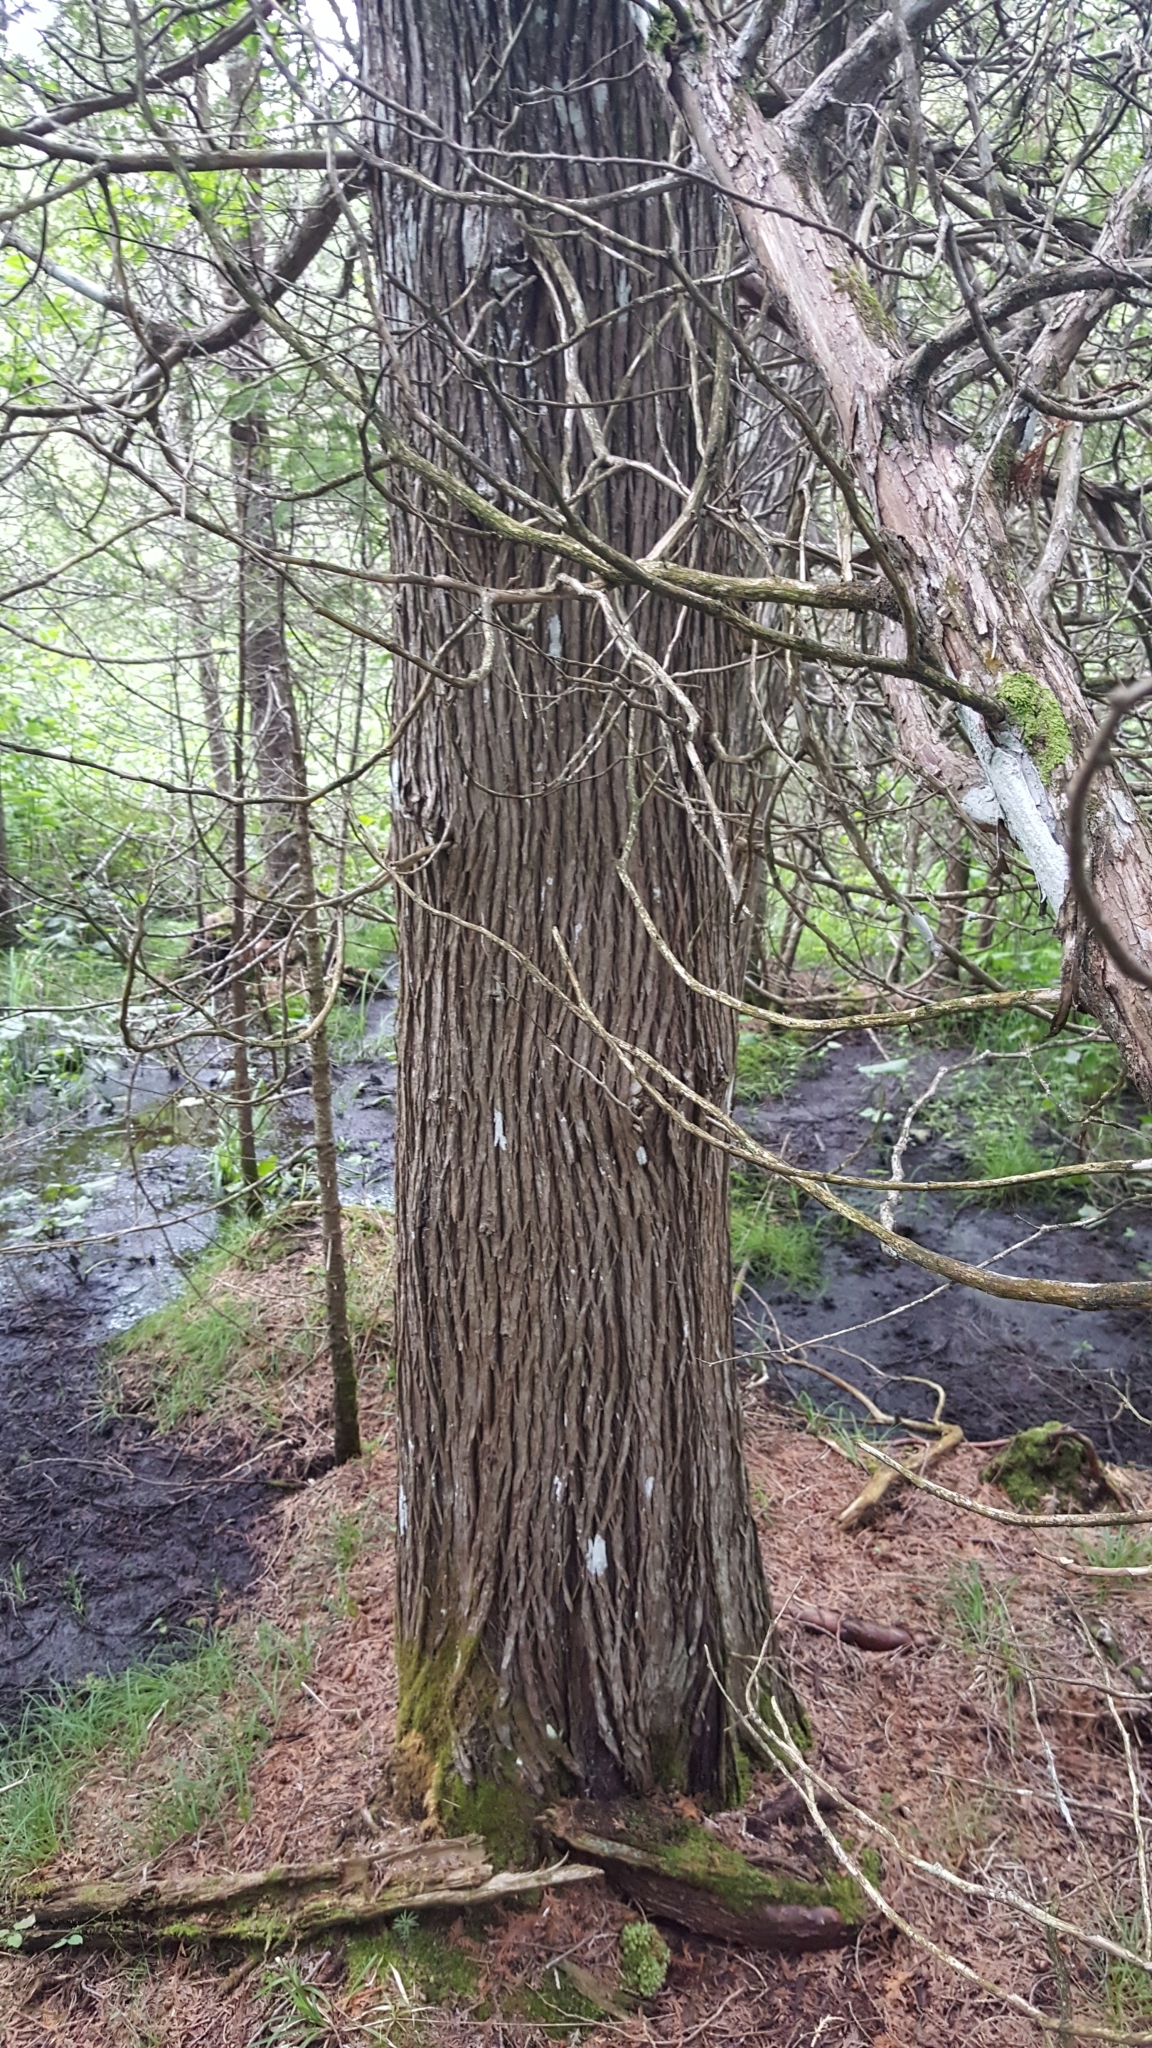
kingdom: Plantae
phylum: Tracheophyta
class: Pinopsida
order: Pinales
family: Cupressaceae
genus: Thuja
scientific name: Thuja occidentalis
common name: Northern white-cedar
